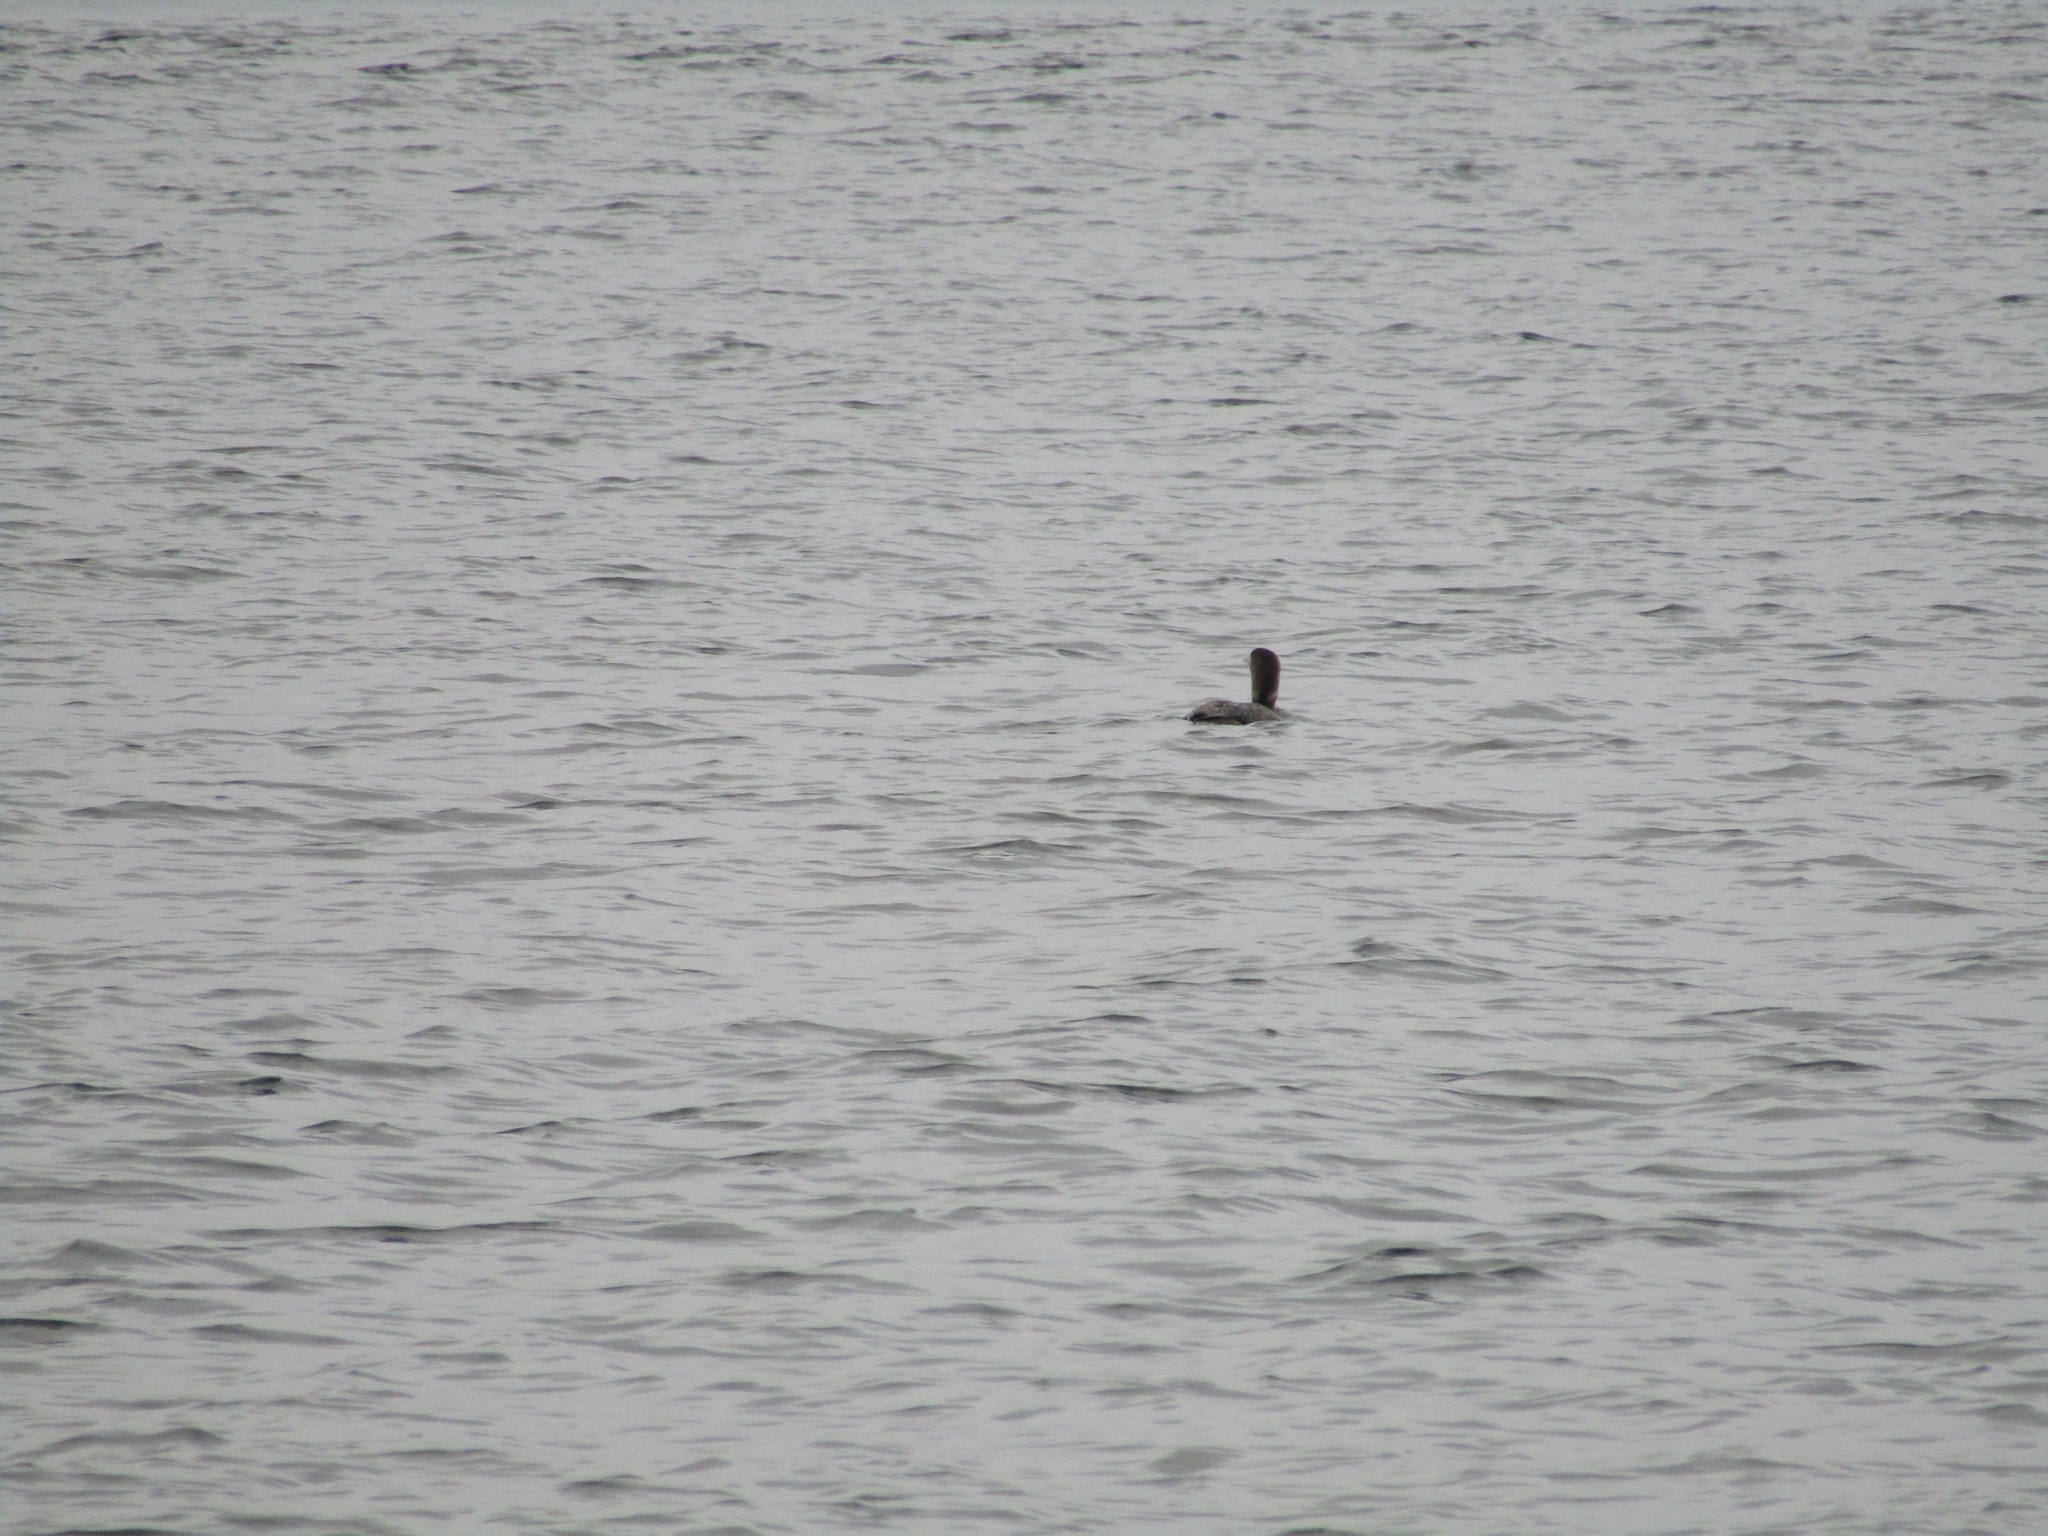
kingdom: Animalia
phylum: Chordata
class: Aves
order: Gaviiformes
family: Gaviidae
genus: Gavia
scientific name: Gavia immer
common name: Common loon
